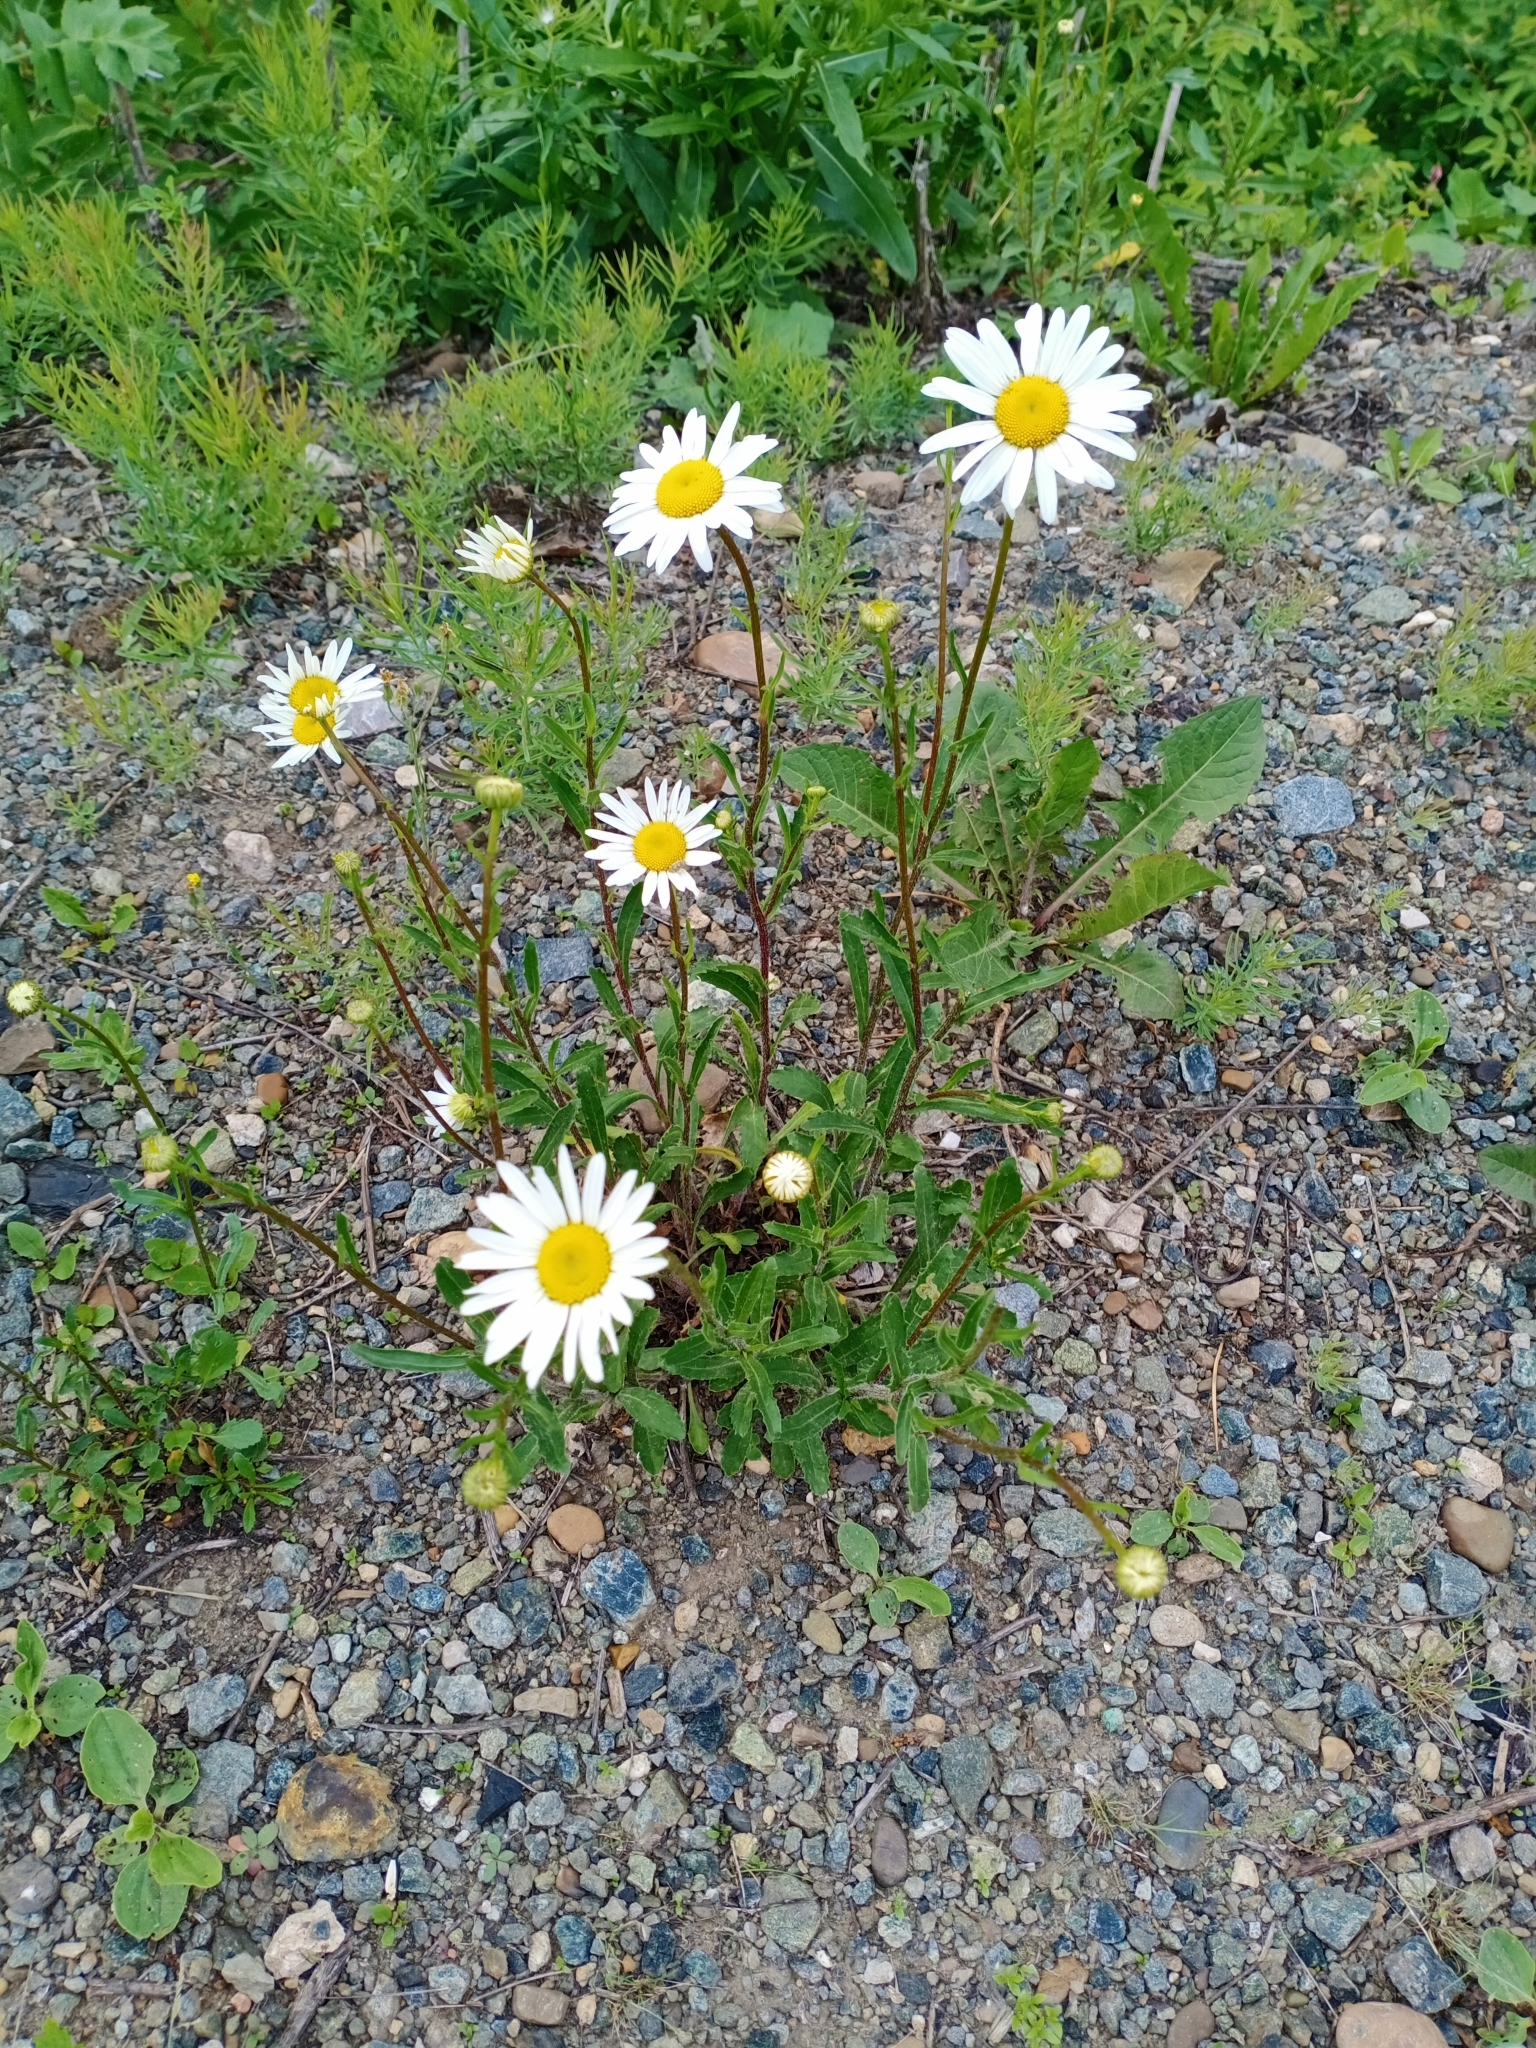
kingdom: Plantae
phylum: Tracheophyta
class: Magnoliopsida
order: Asterales
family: Asteraceae
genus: Leucanthemum
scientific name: Leucanthemum ircutianum
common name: Daisy
